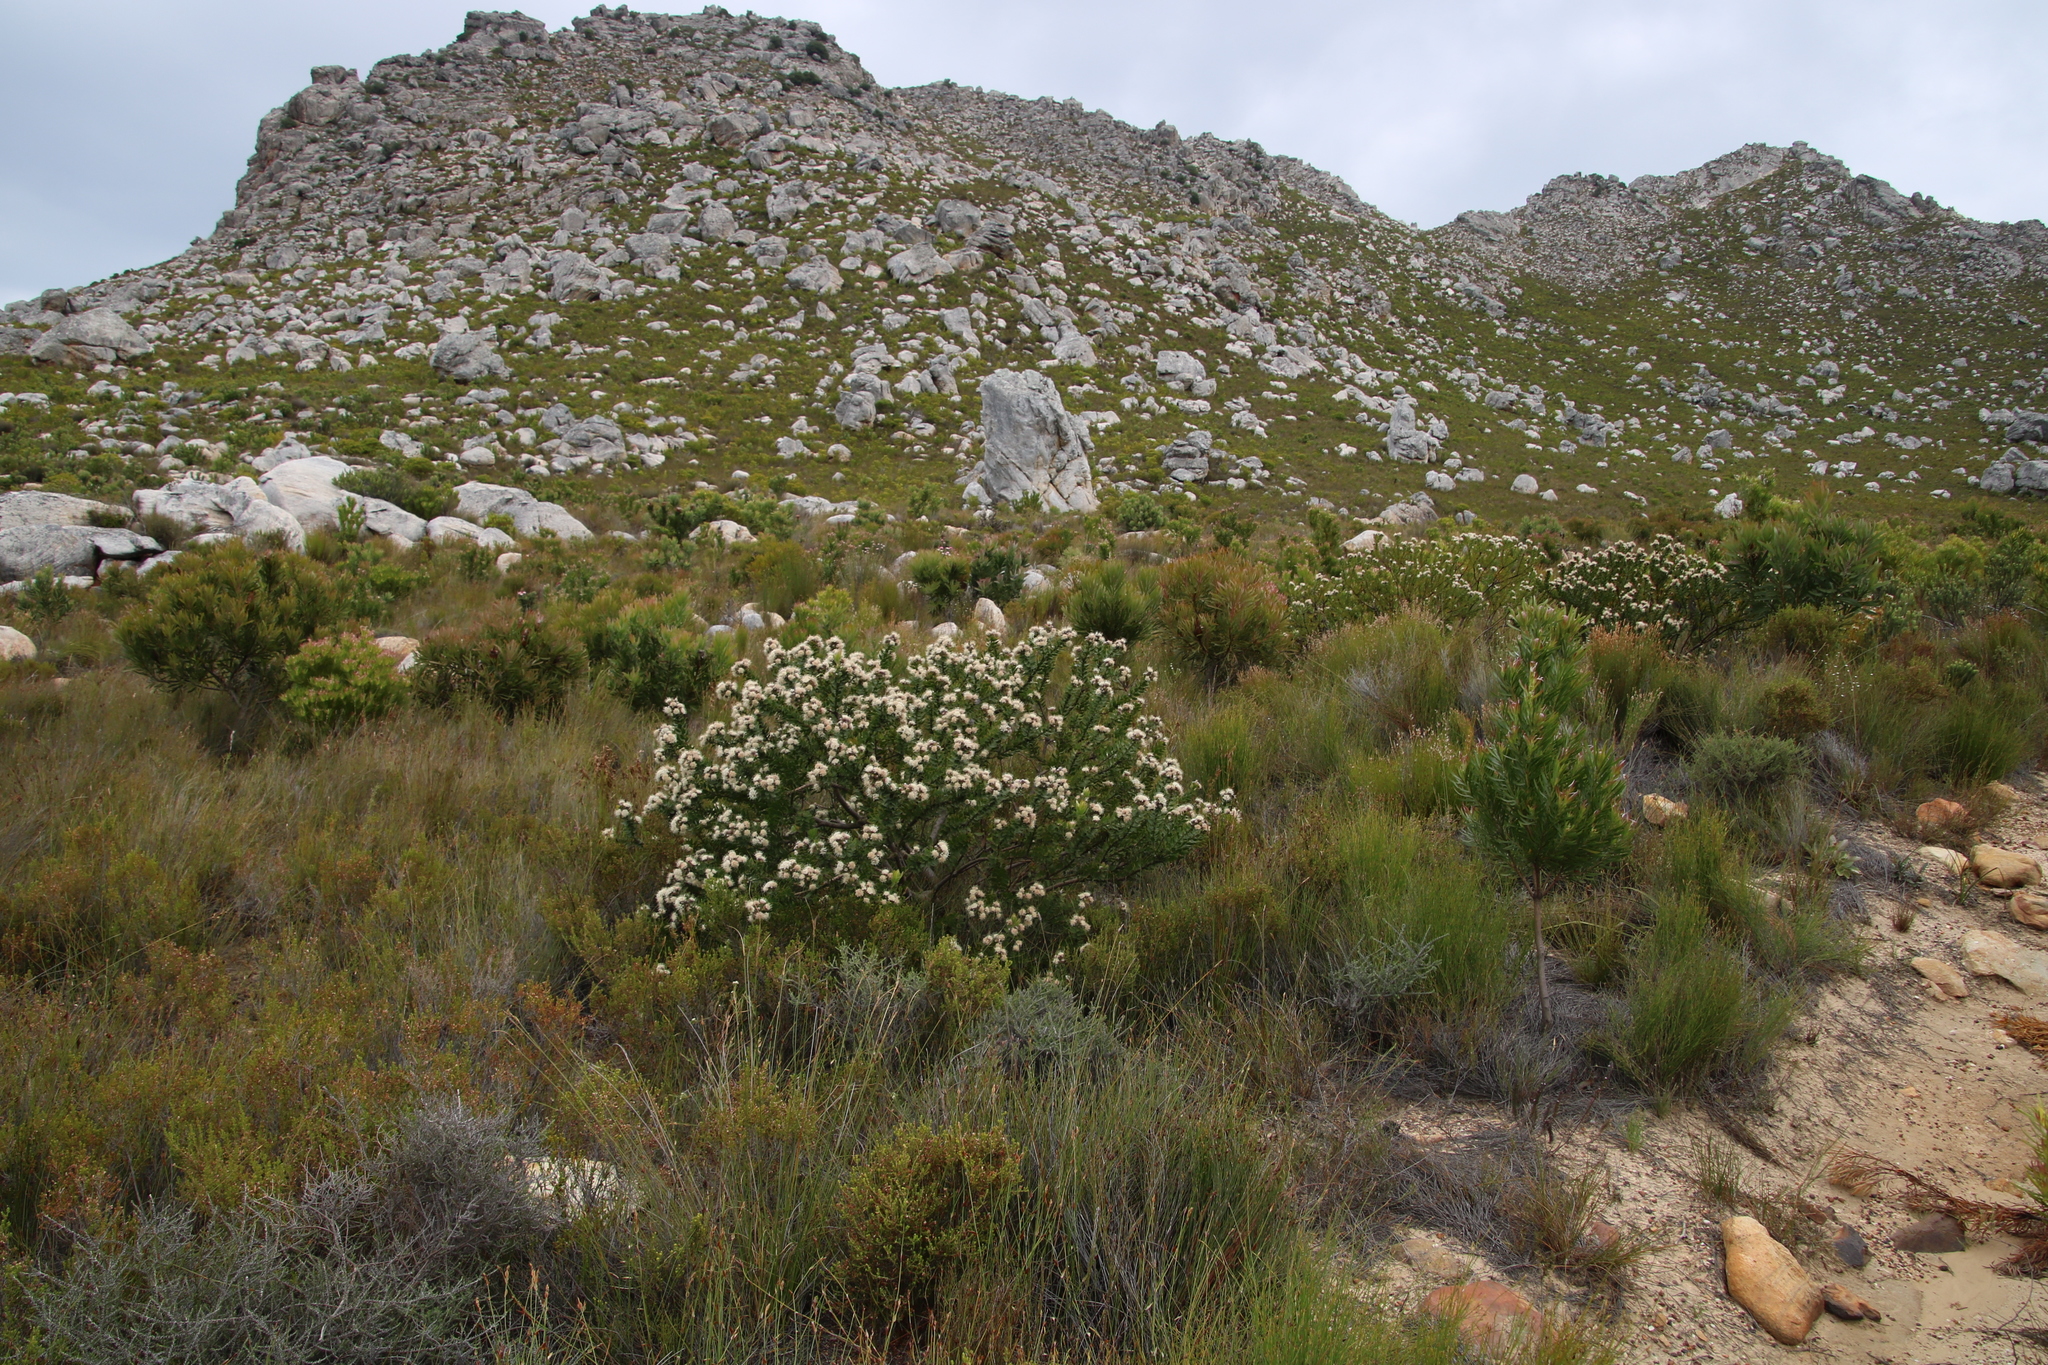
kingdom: Plantae
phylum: Tracheophyta
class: Magnoliopsida
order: Proteales
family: Proteaceae
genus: Leucospermum
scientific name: Leucospermum bolusii
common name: Gordon's bay pincushion
